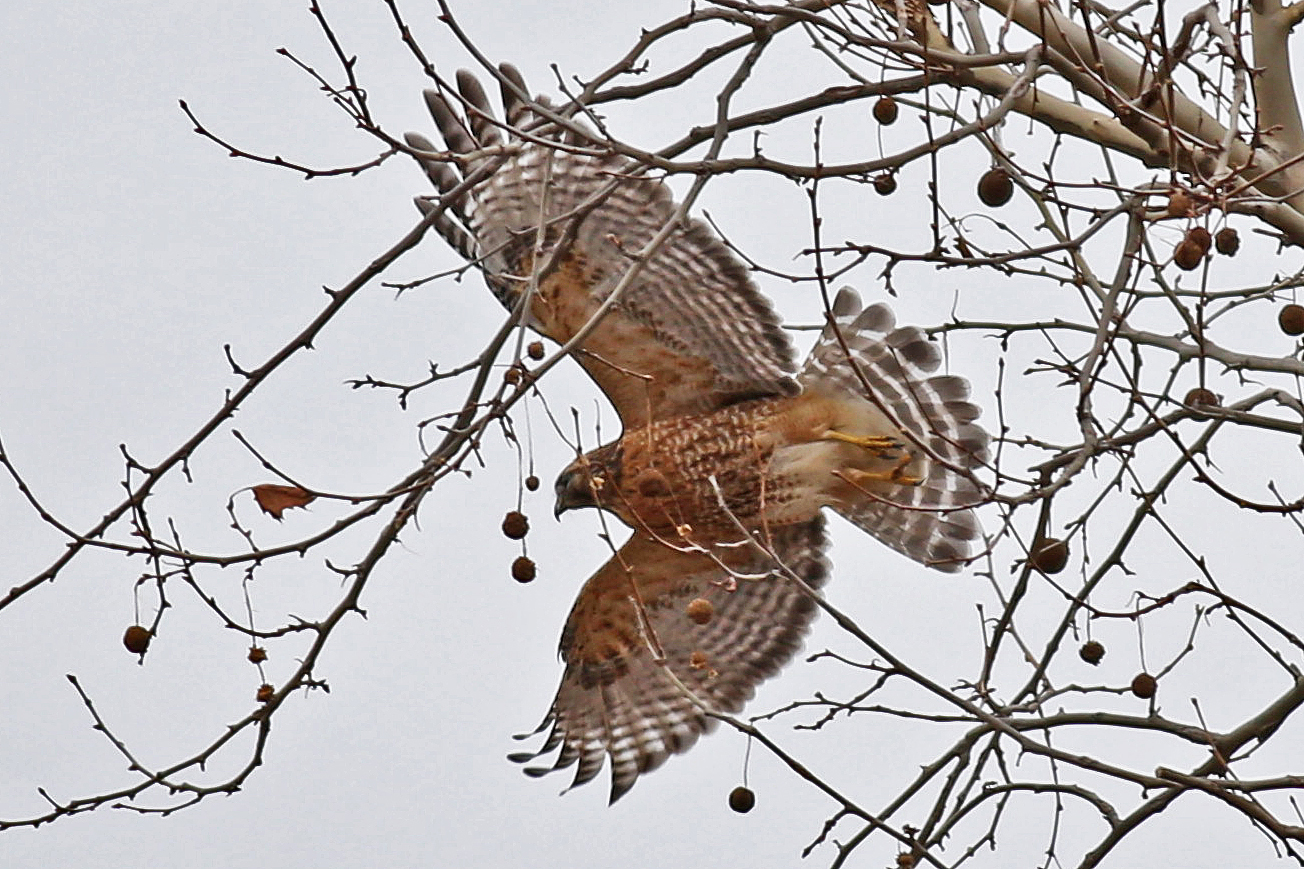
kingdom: Animalia
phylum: Chordata
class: Aves
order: Accipitriformes
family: Accipitridae
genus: Buteo
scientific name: Buteo lineatus
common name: Red-shouldered hawk
